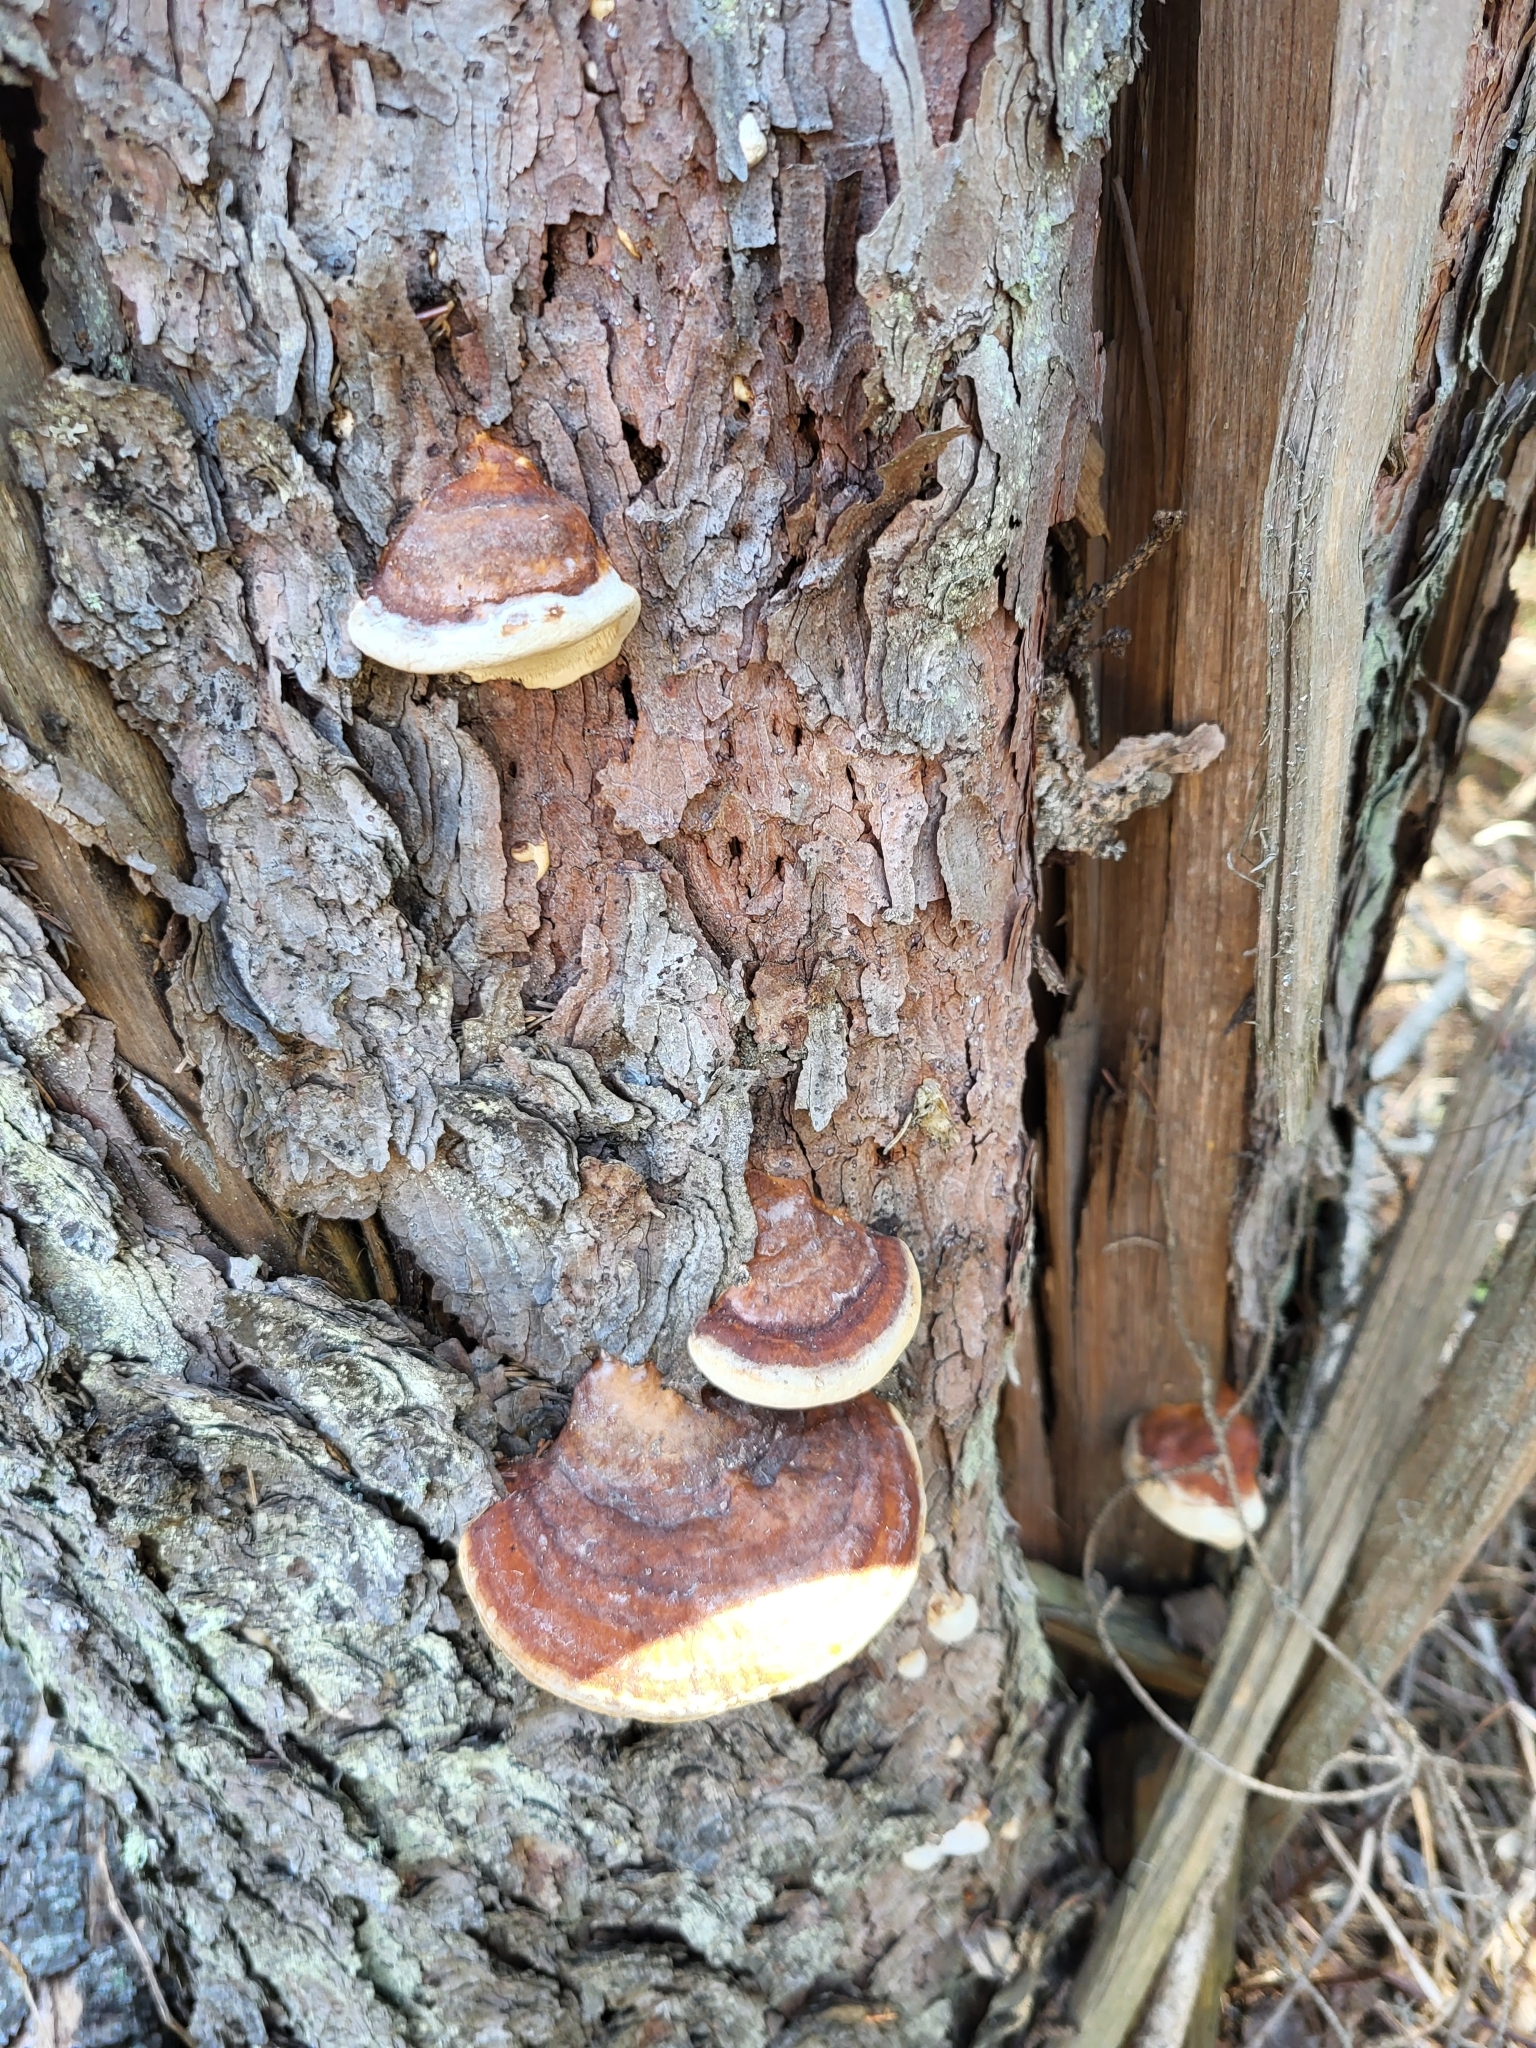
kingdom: Fungi
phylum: Basidiomycota
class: Agaricomycetes
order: Polyporales
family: Fomitopsidaceae
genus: Fomitopsis
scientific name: Fomitopsis mounceae
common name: Northern red belt
